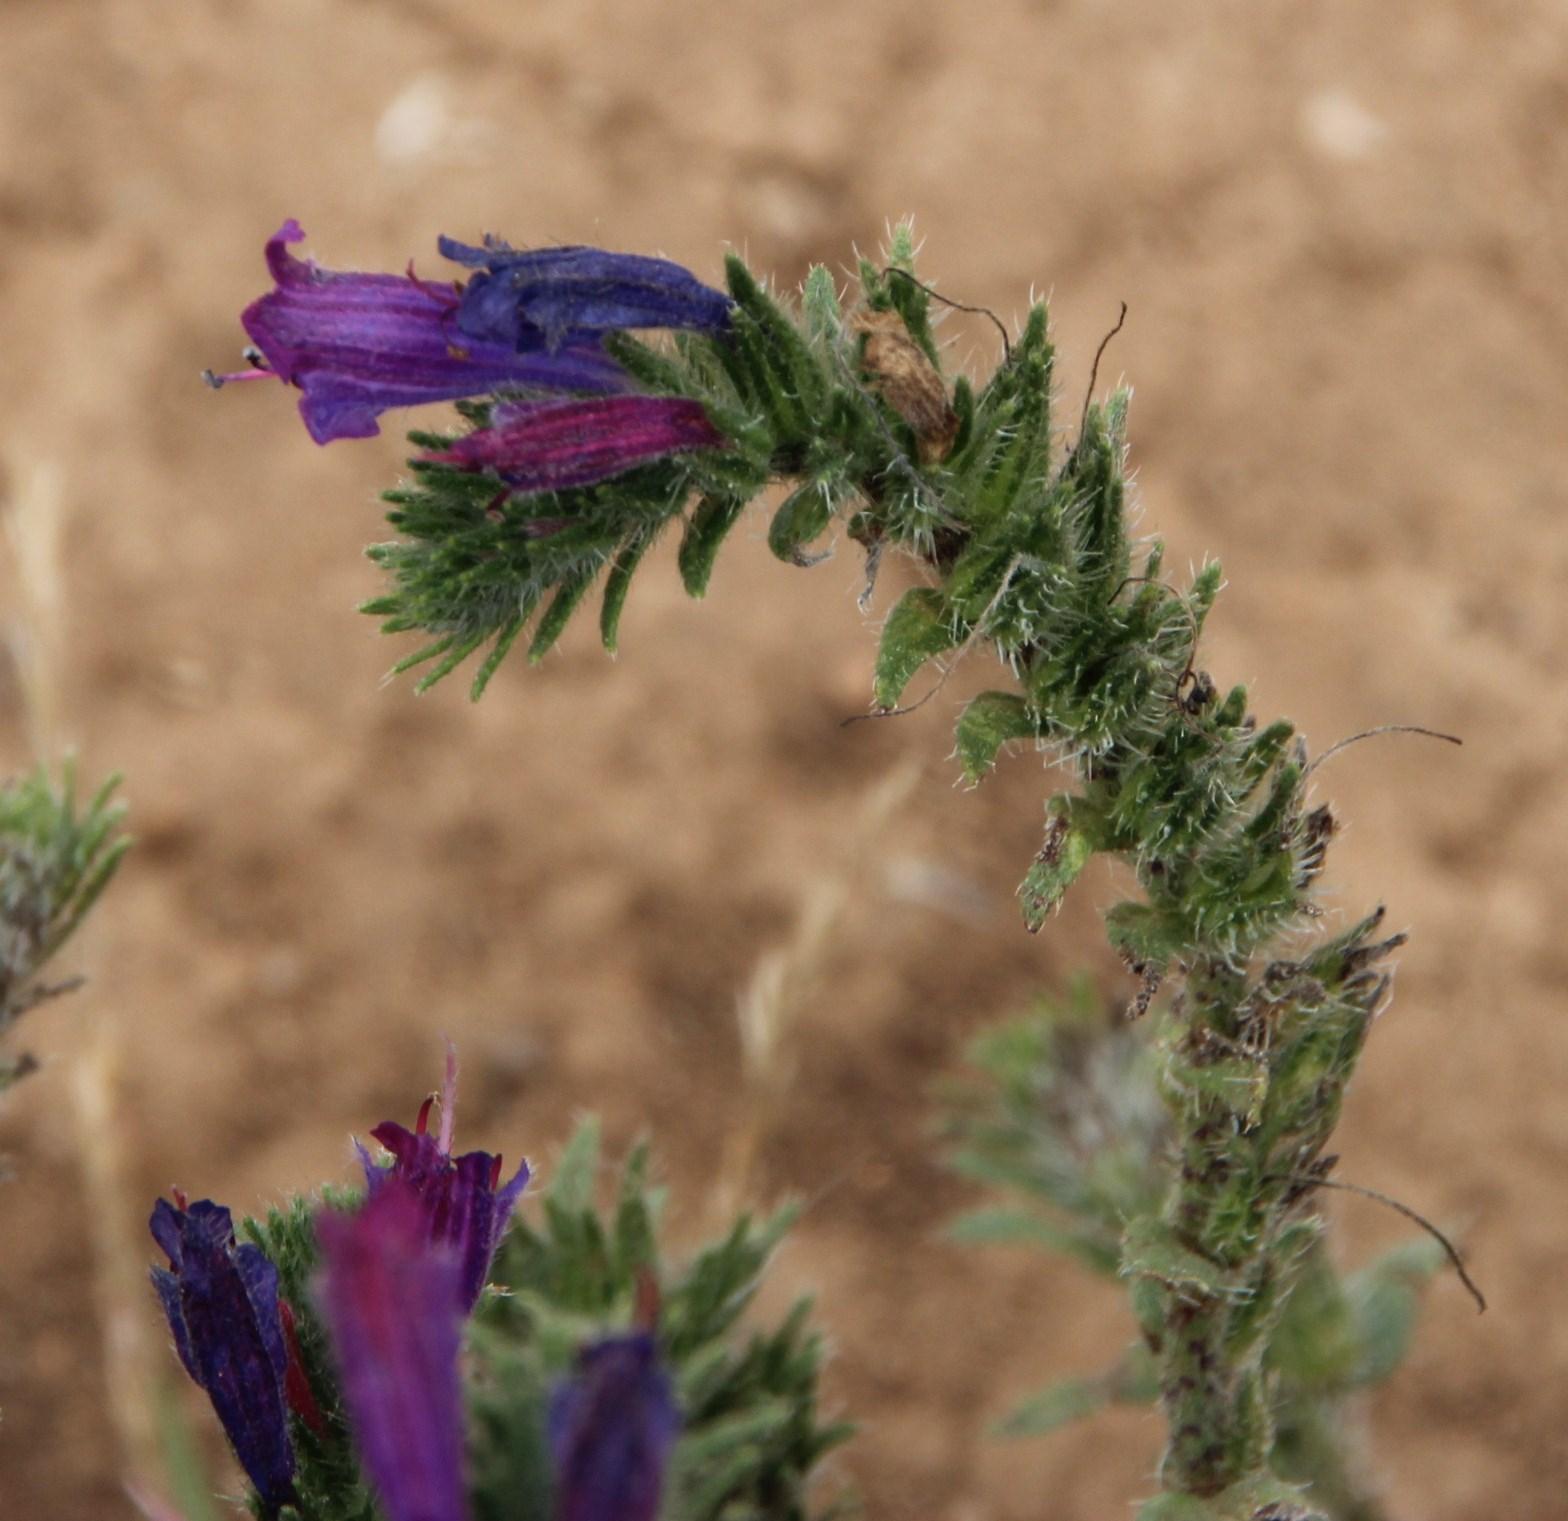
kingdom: Plantae
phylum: Tracheophyta
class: Magnoliopsida
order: Boraginales
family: Boraginaceae
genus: Echium
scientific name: Echium tuberculatum
